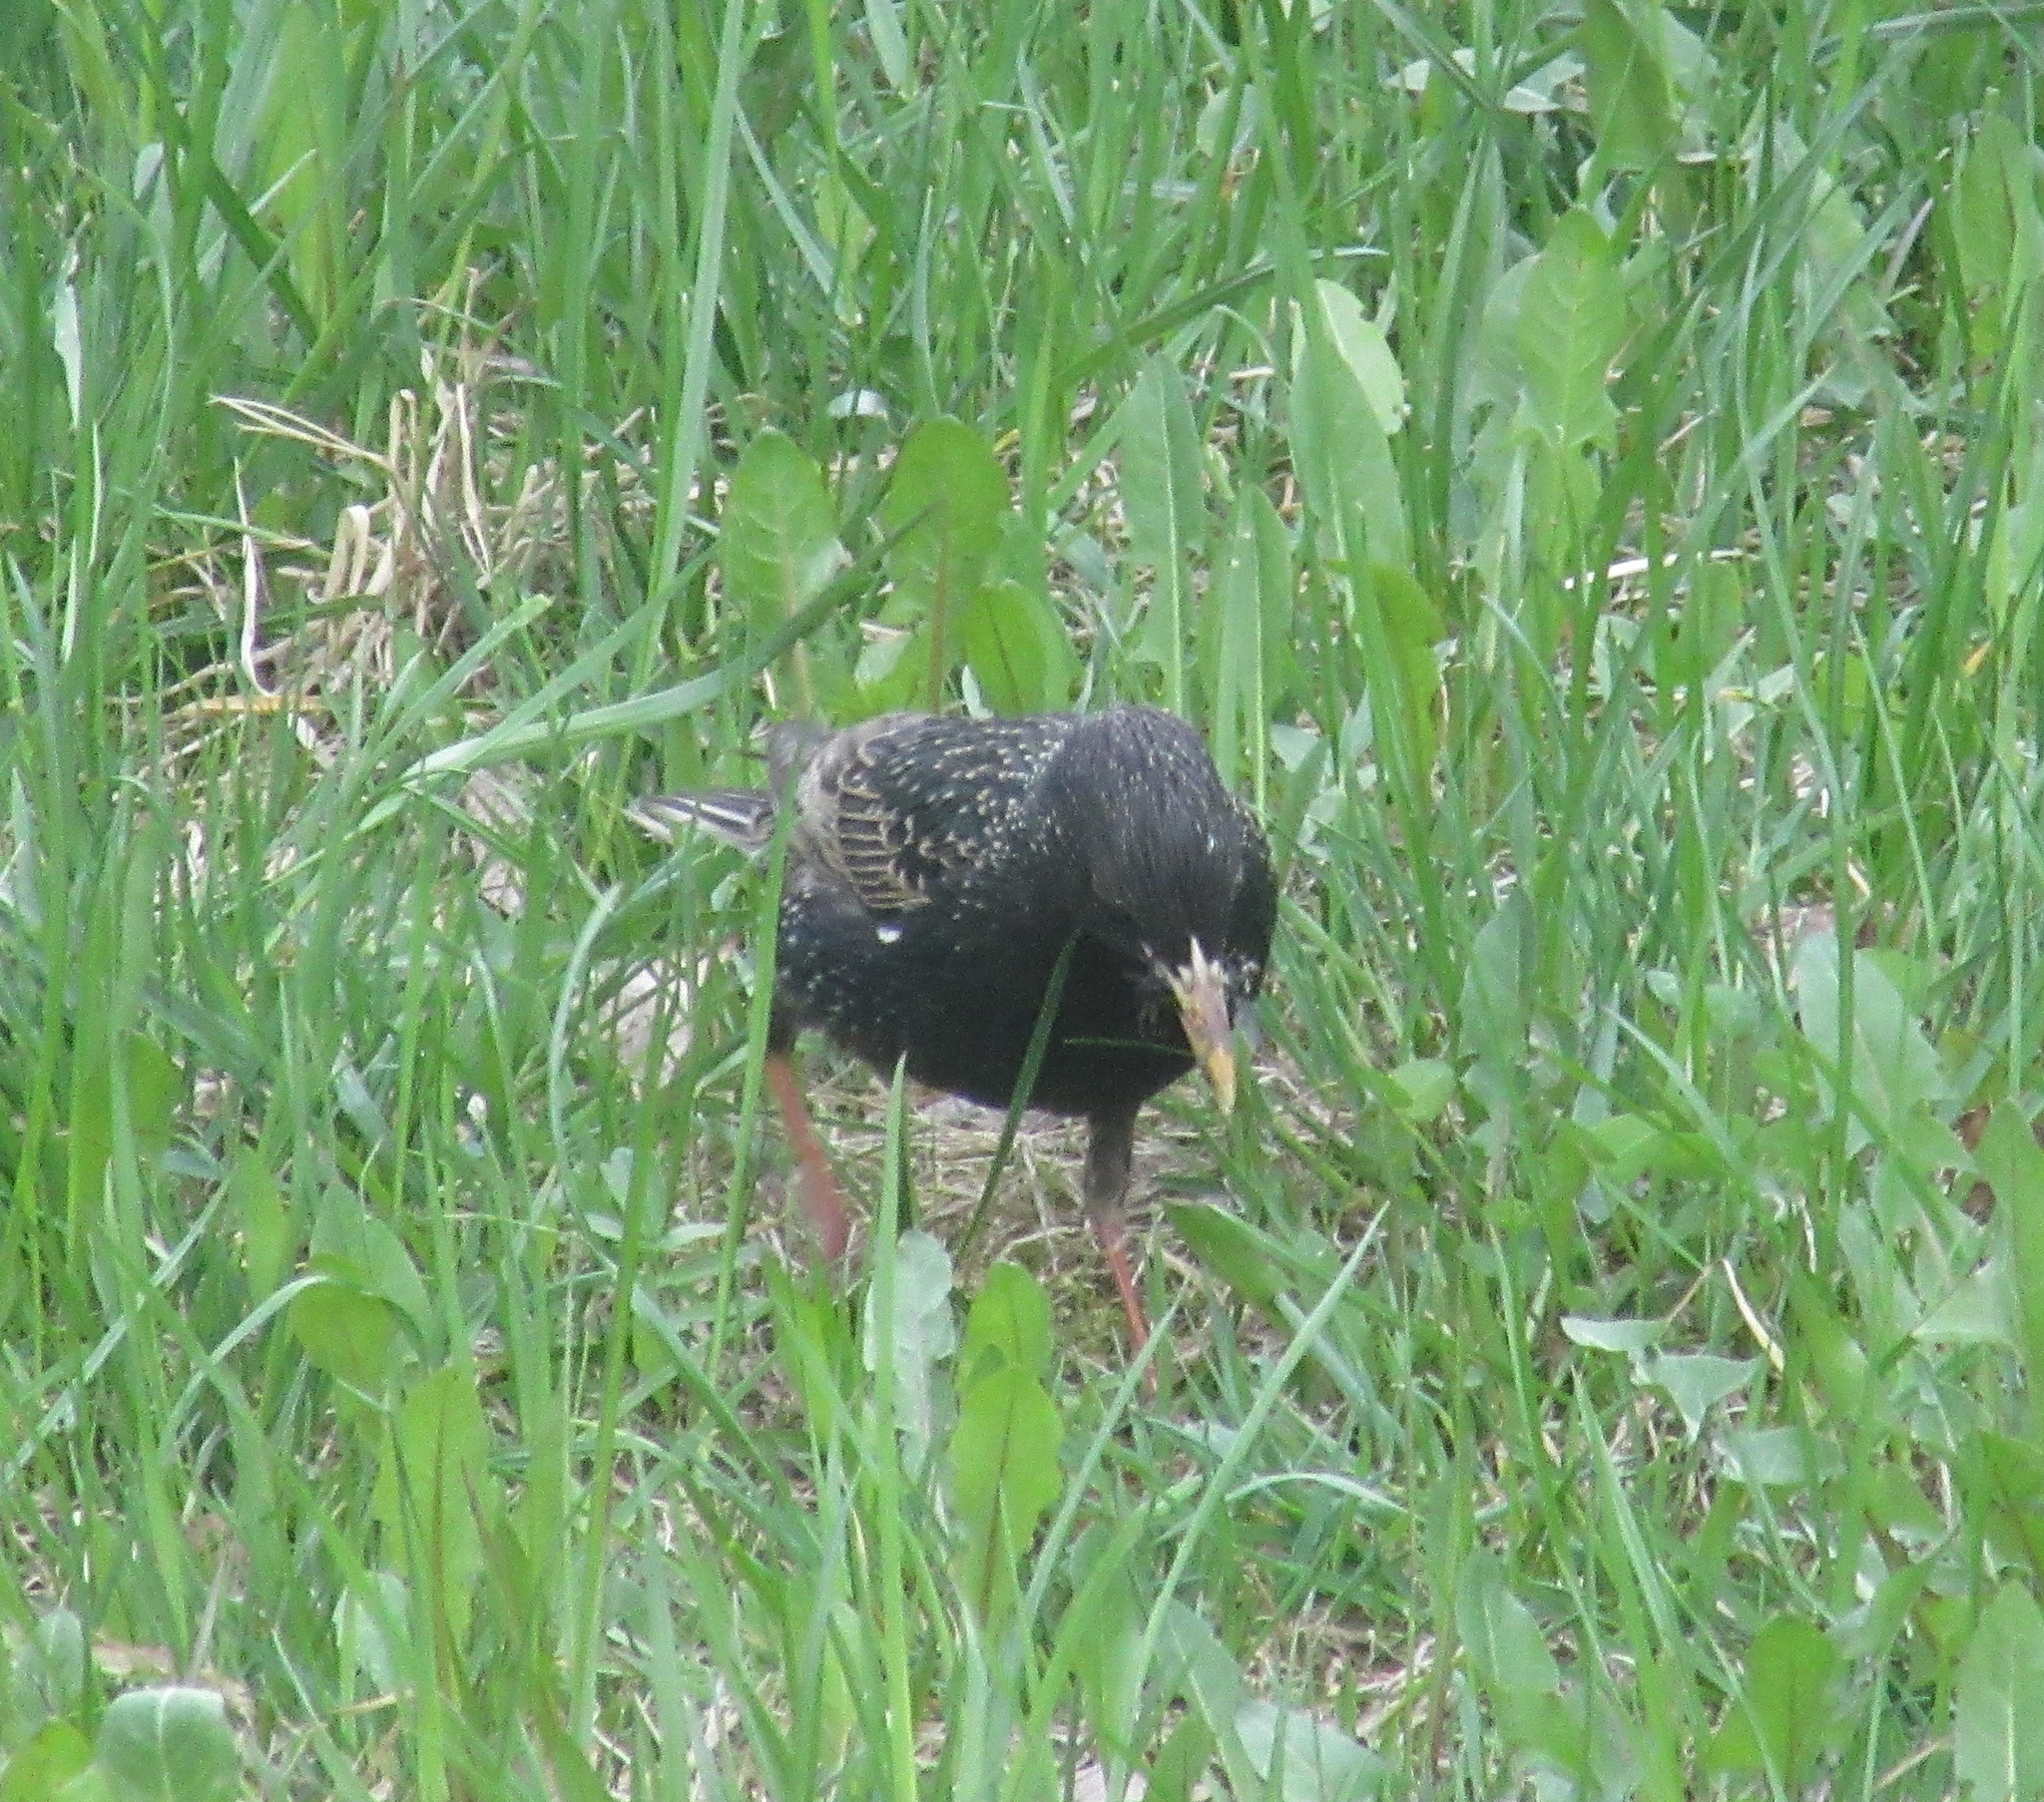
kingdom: Animalia
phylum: Chordata
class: Aves
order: Passeriformes
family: Sturnidae
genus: Sturnus
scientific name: Sturnus vulgaris
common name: Common starling
